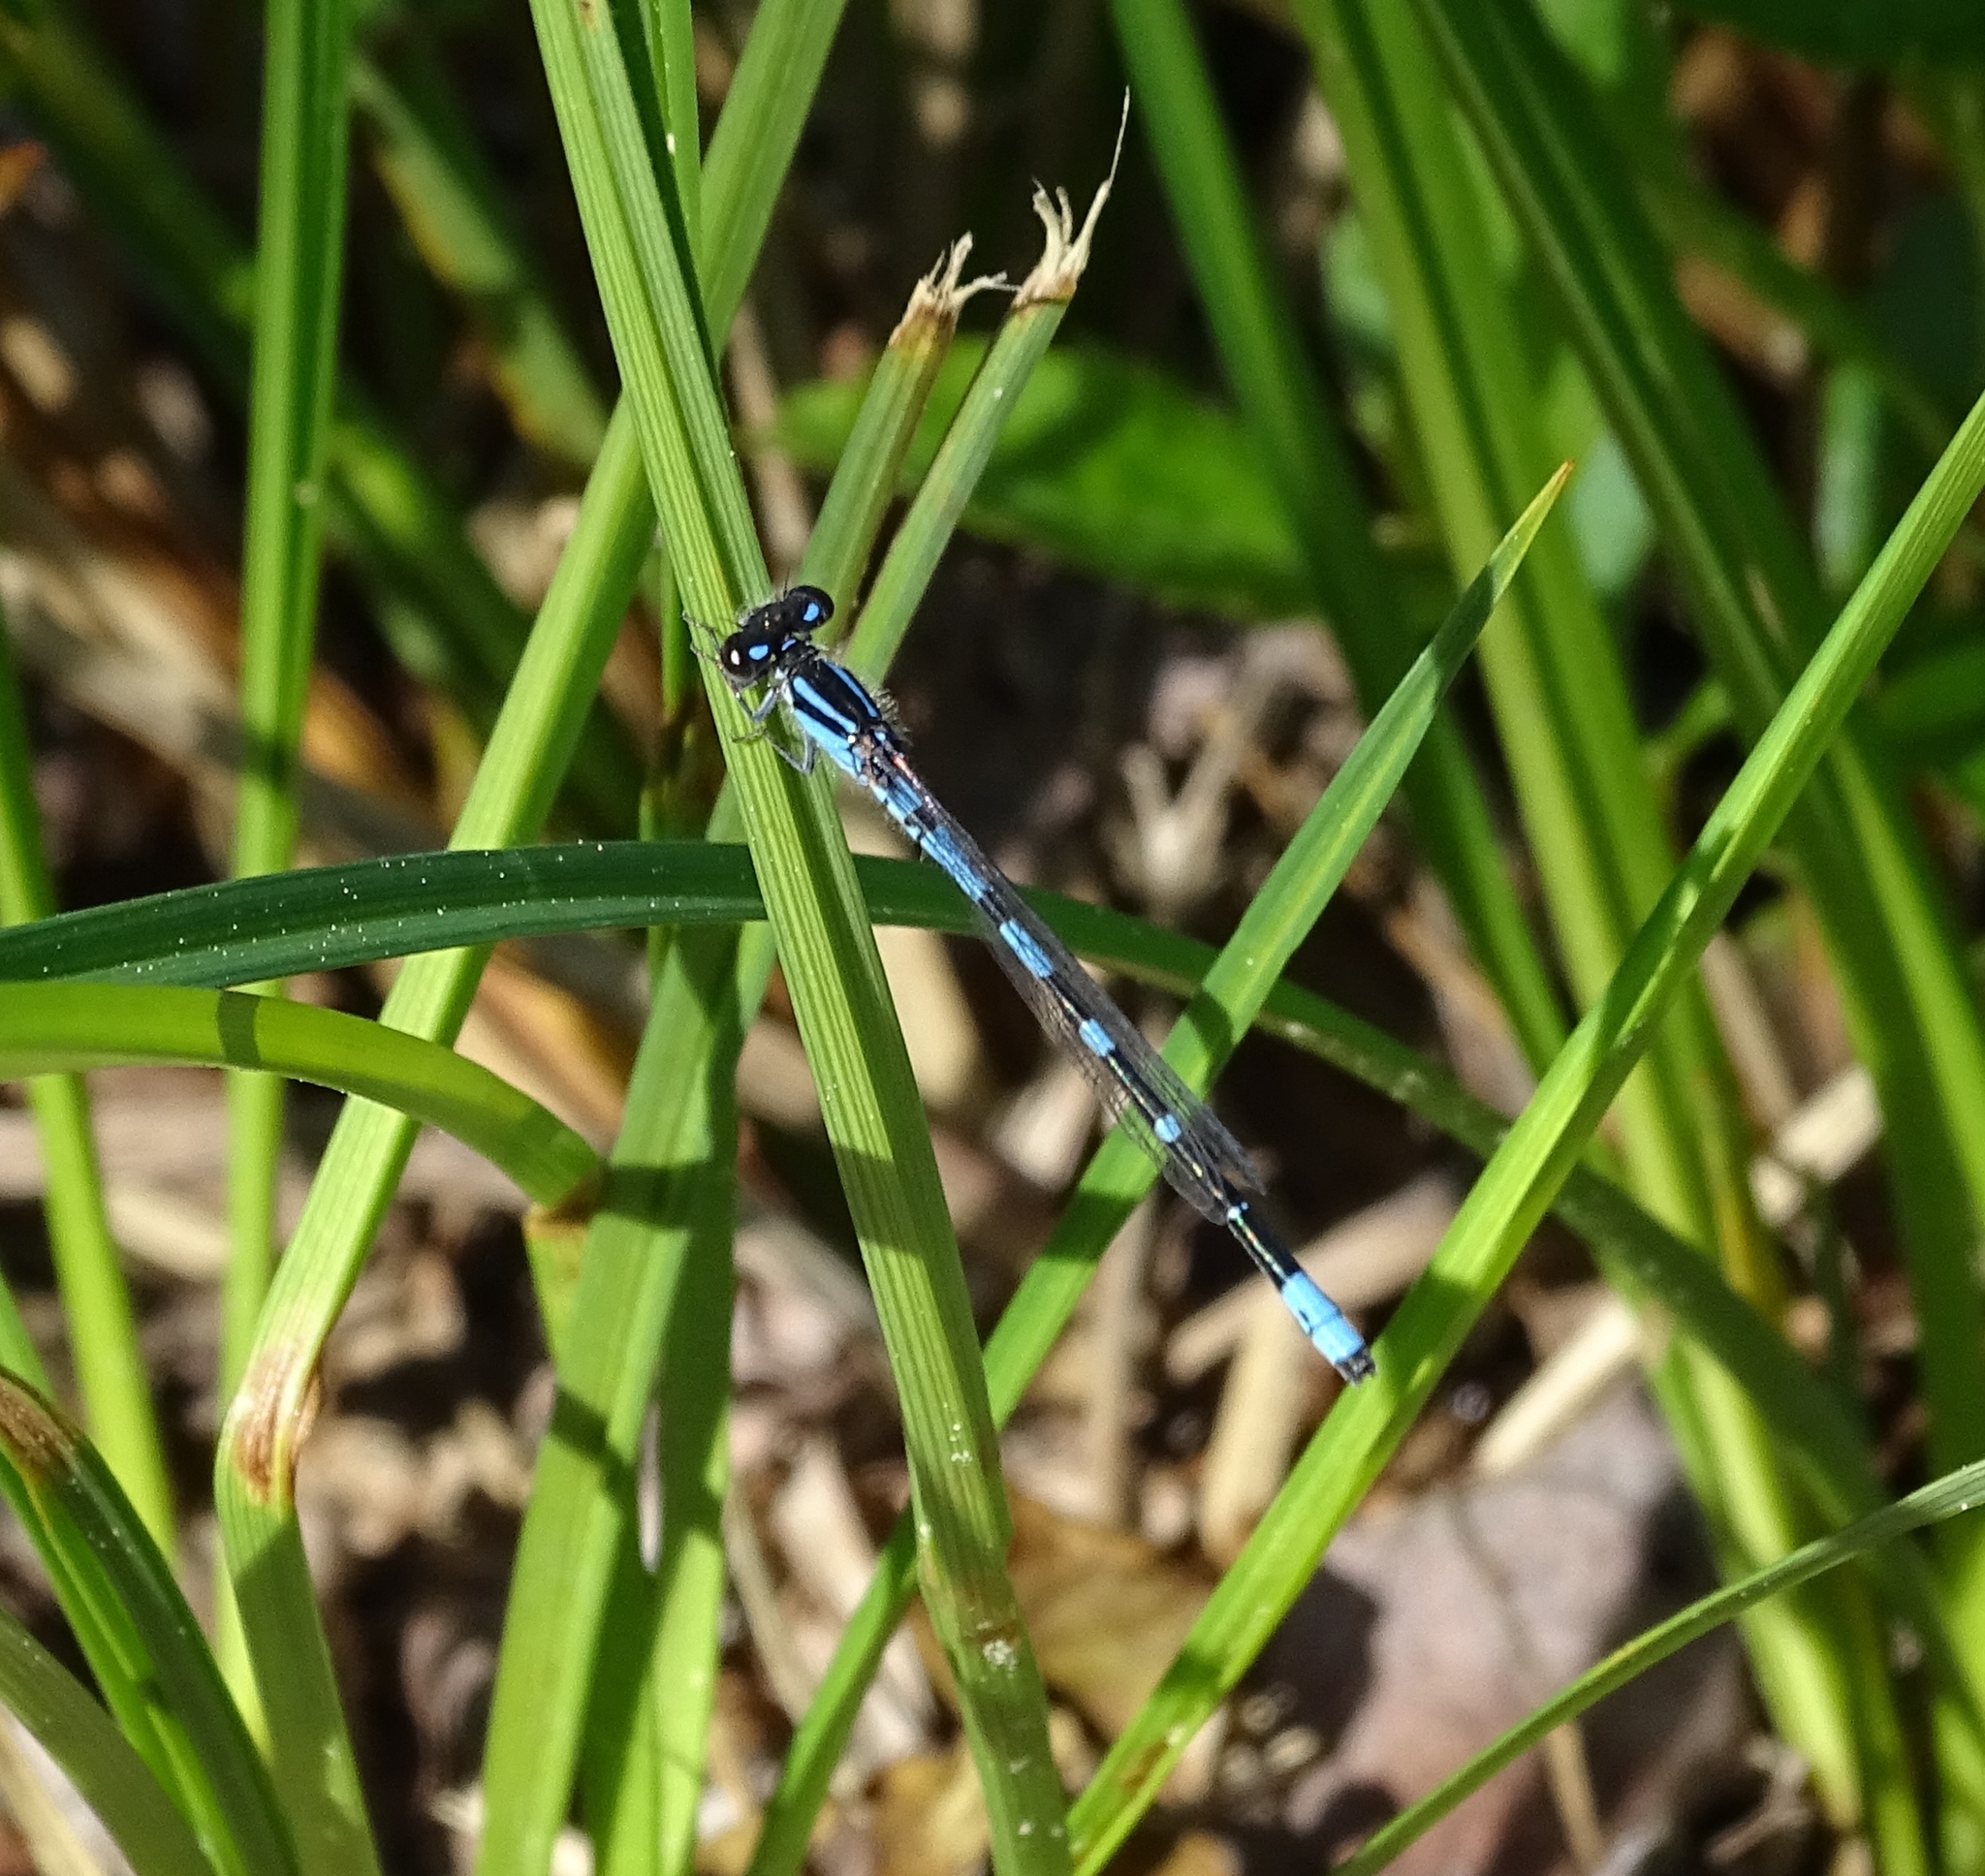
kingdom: Animalia
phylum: Arthropoda
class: Insecta
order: Odonata
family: Coenagrionidae
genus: Enallagma
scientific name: Enallagma recurvatum
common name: Pine barrens bluet
